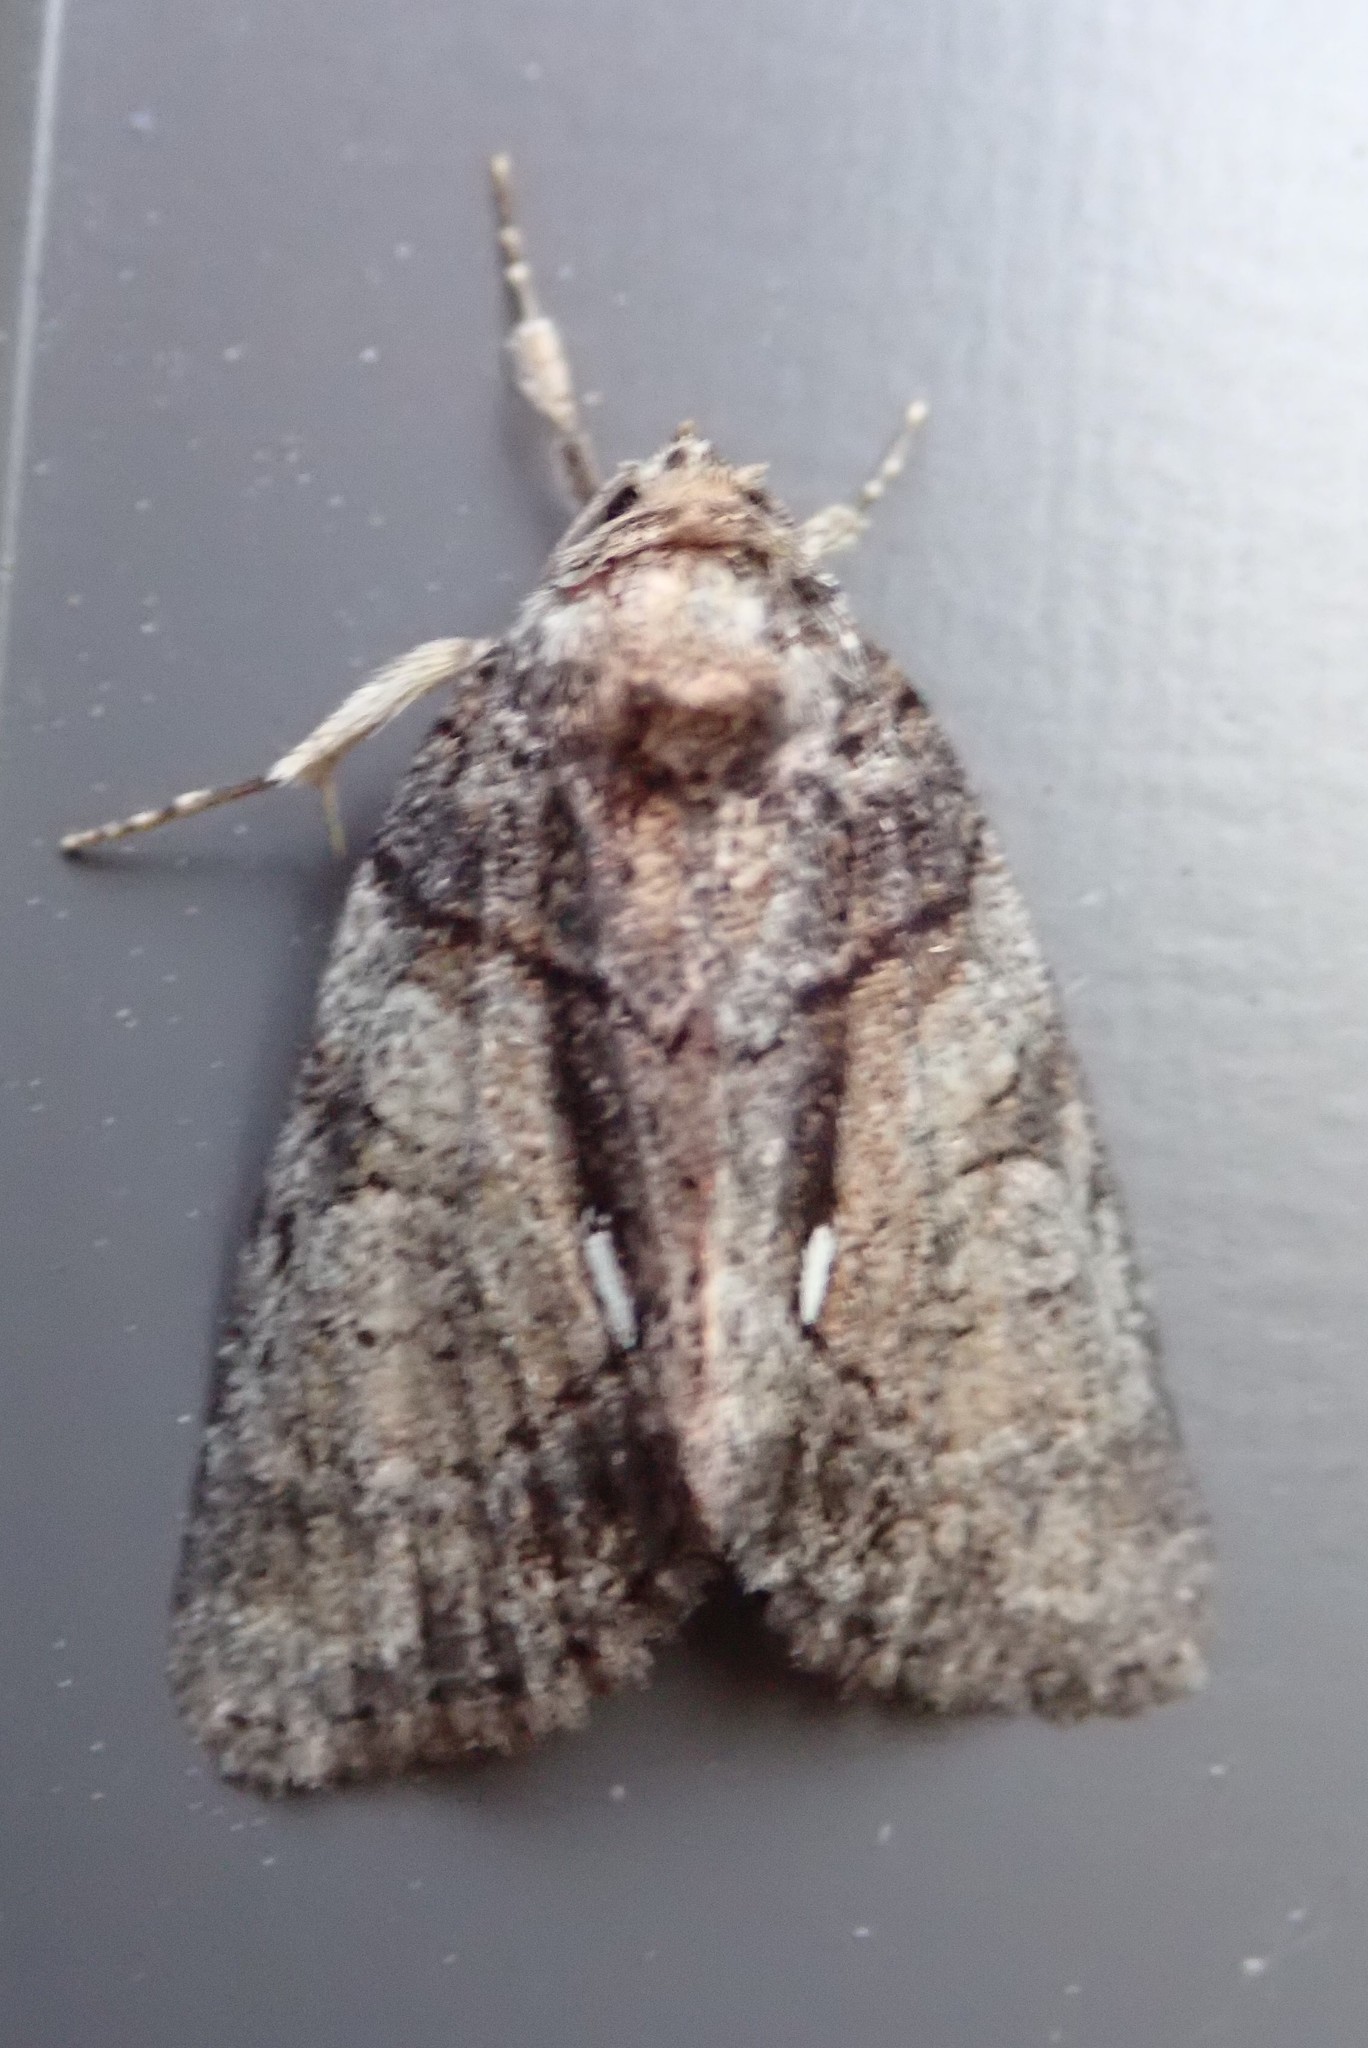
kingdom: Animalia
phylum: Arthropoda
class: Insecta
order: Lepidoptera
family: Noctuidae
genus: Chytonix
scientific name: Chytonix palliatricula
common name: Cloaked marvel
